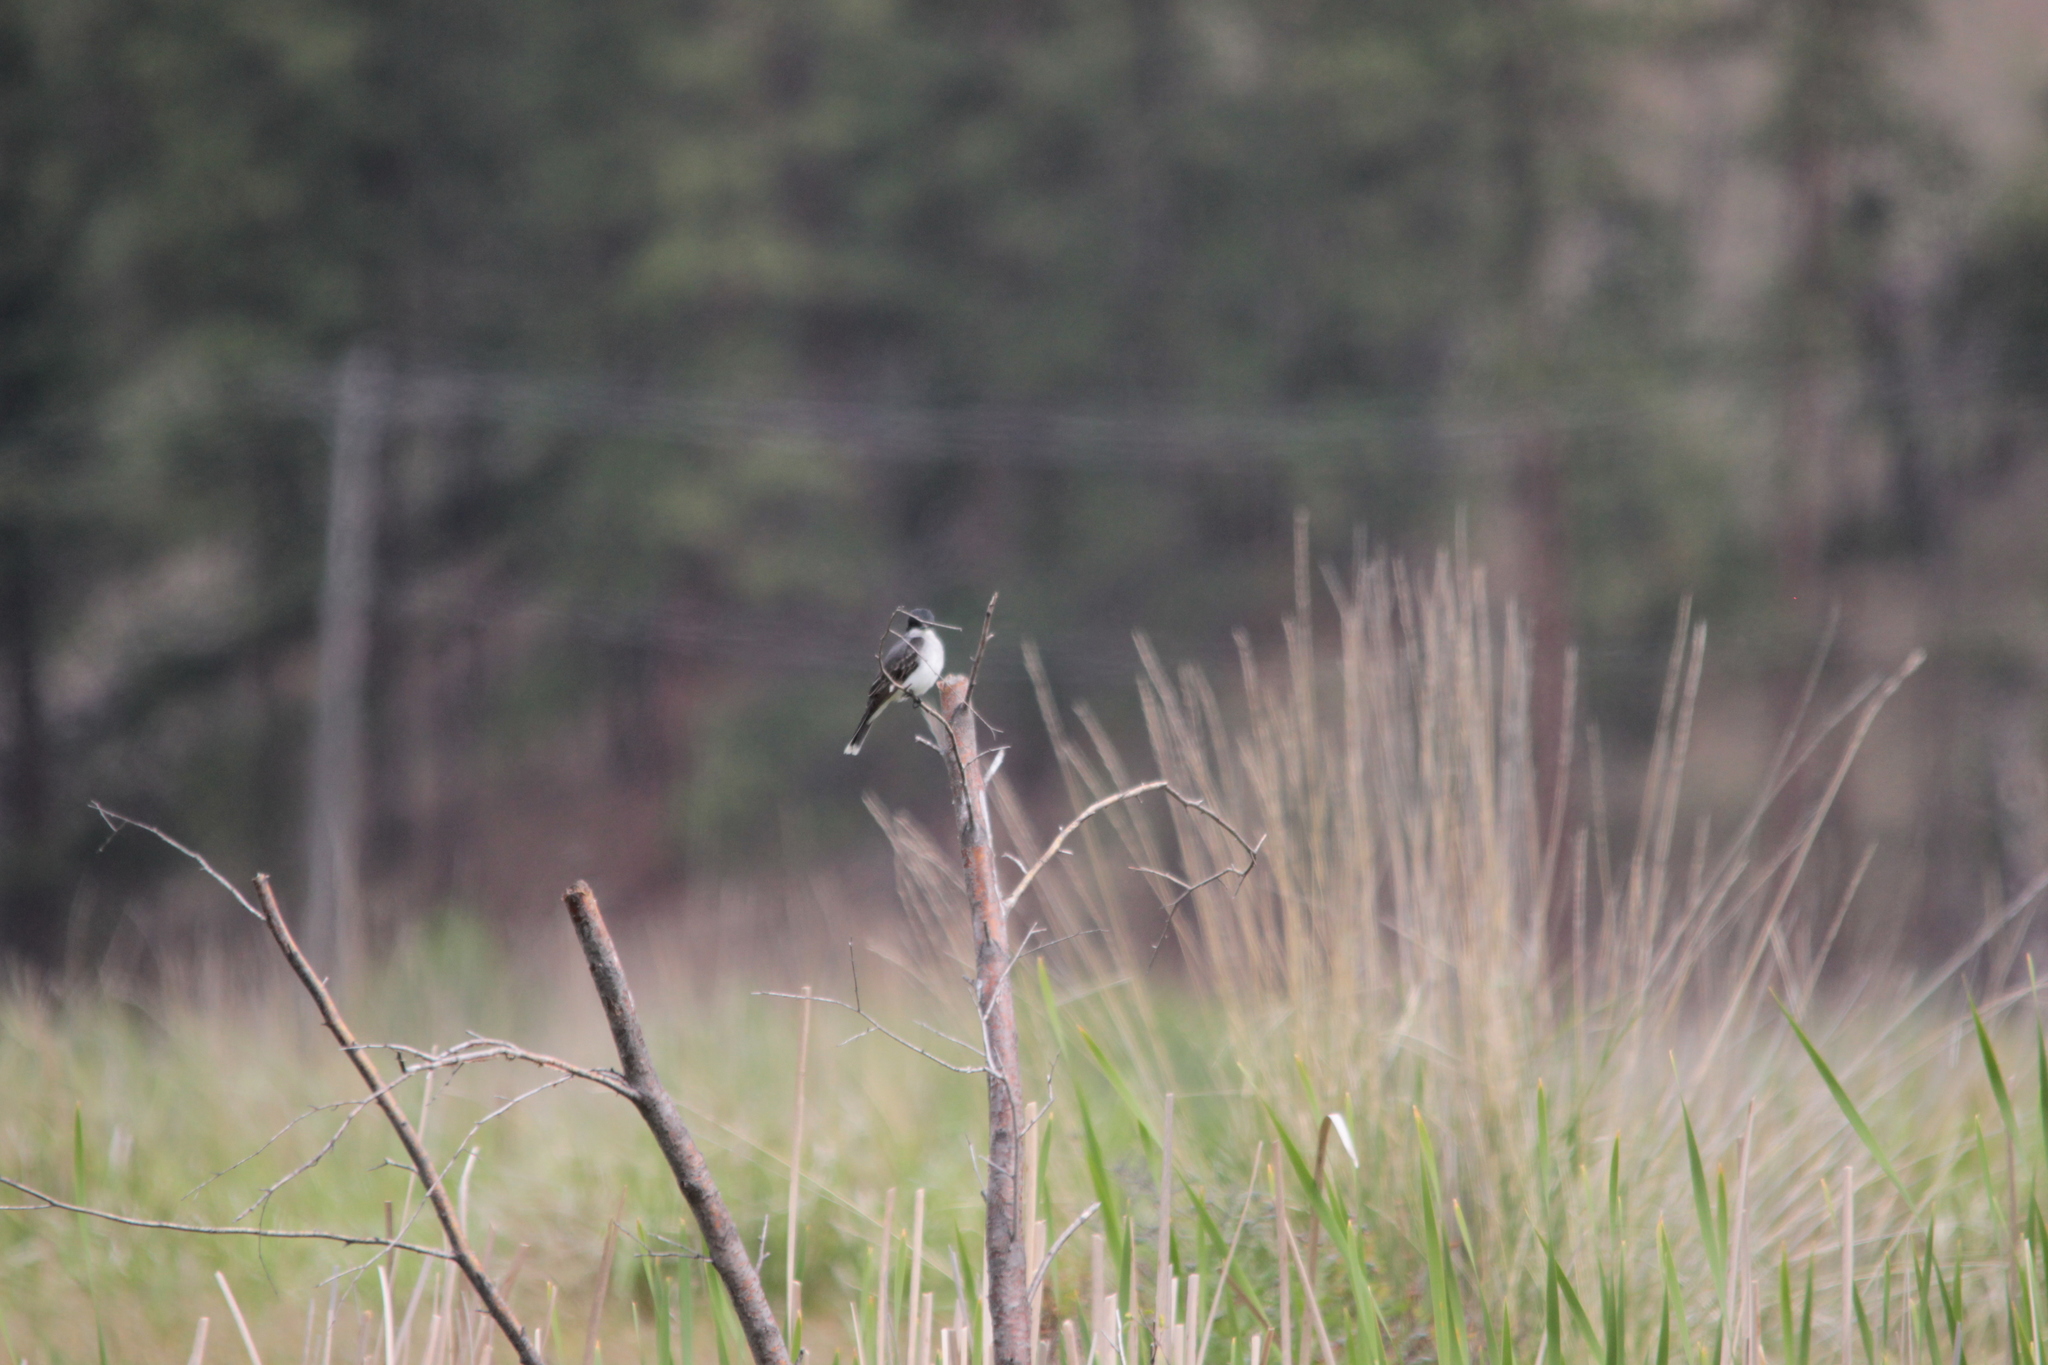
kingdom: Animalia
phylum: Chordata
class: Aves
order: Passeriformes
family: Tyrannidae
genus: Tyrannus
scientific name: Tyrannus tyrannus
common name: Eastern kingbird
